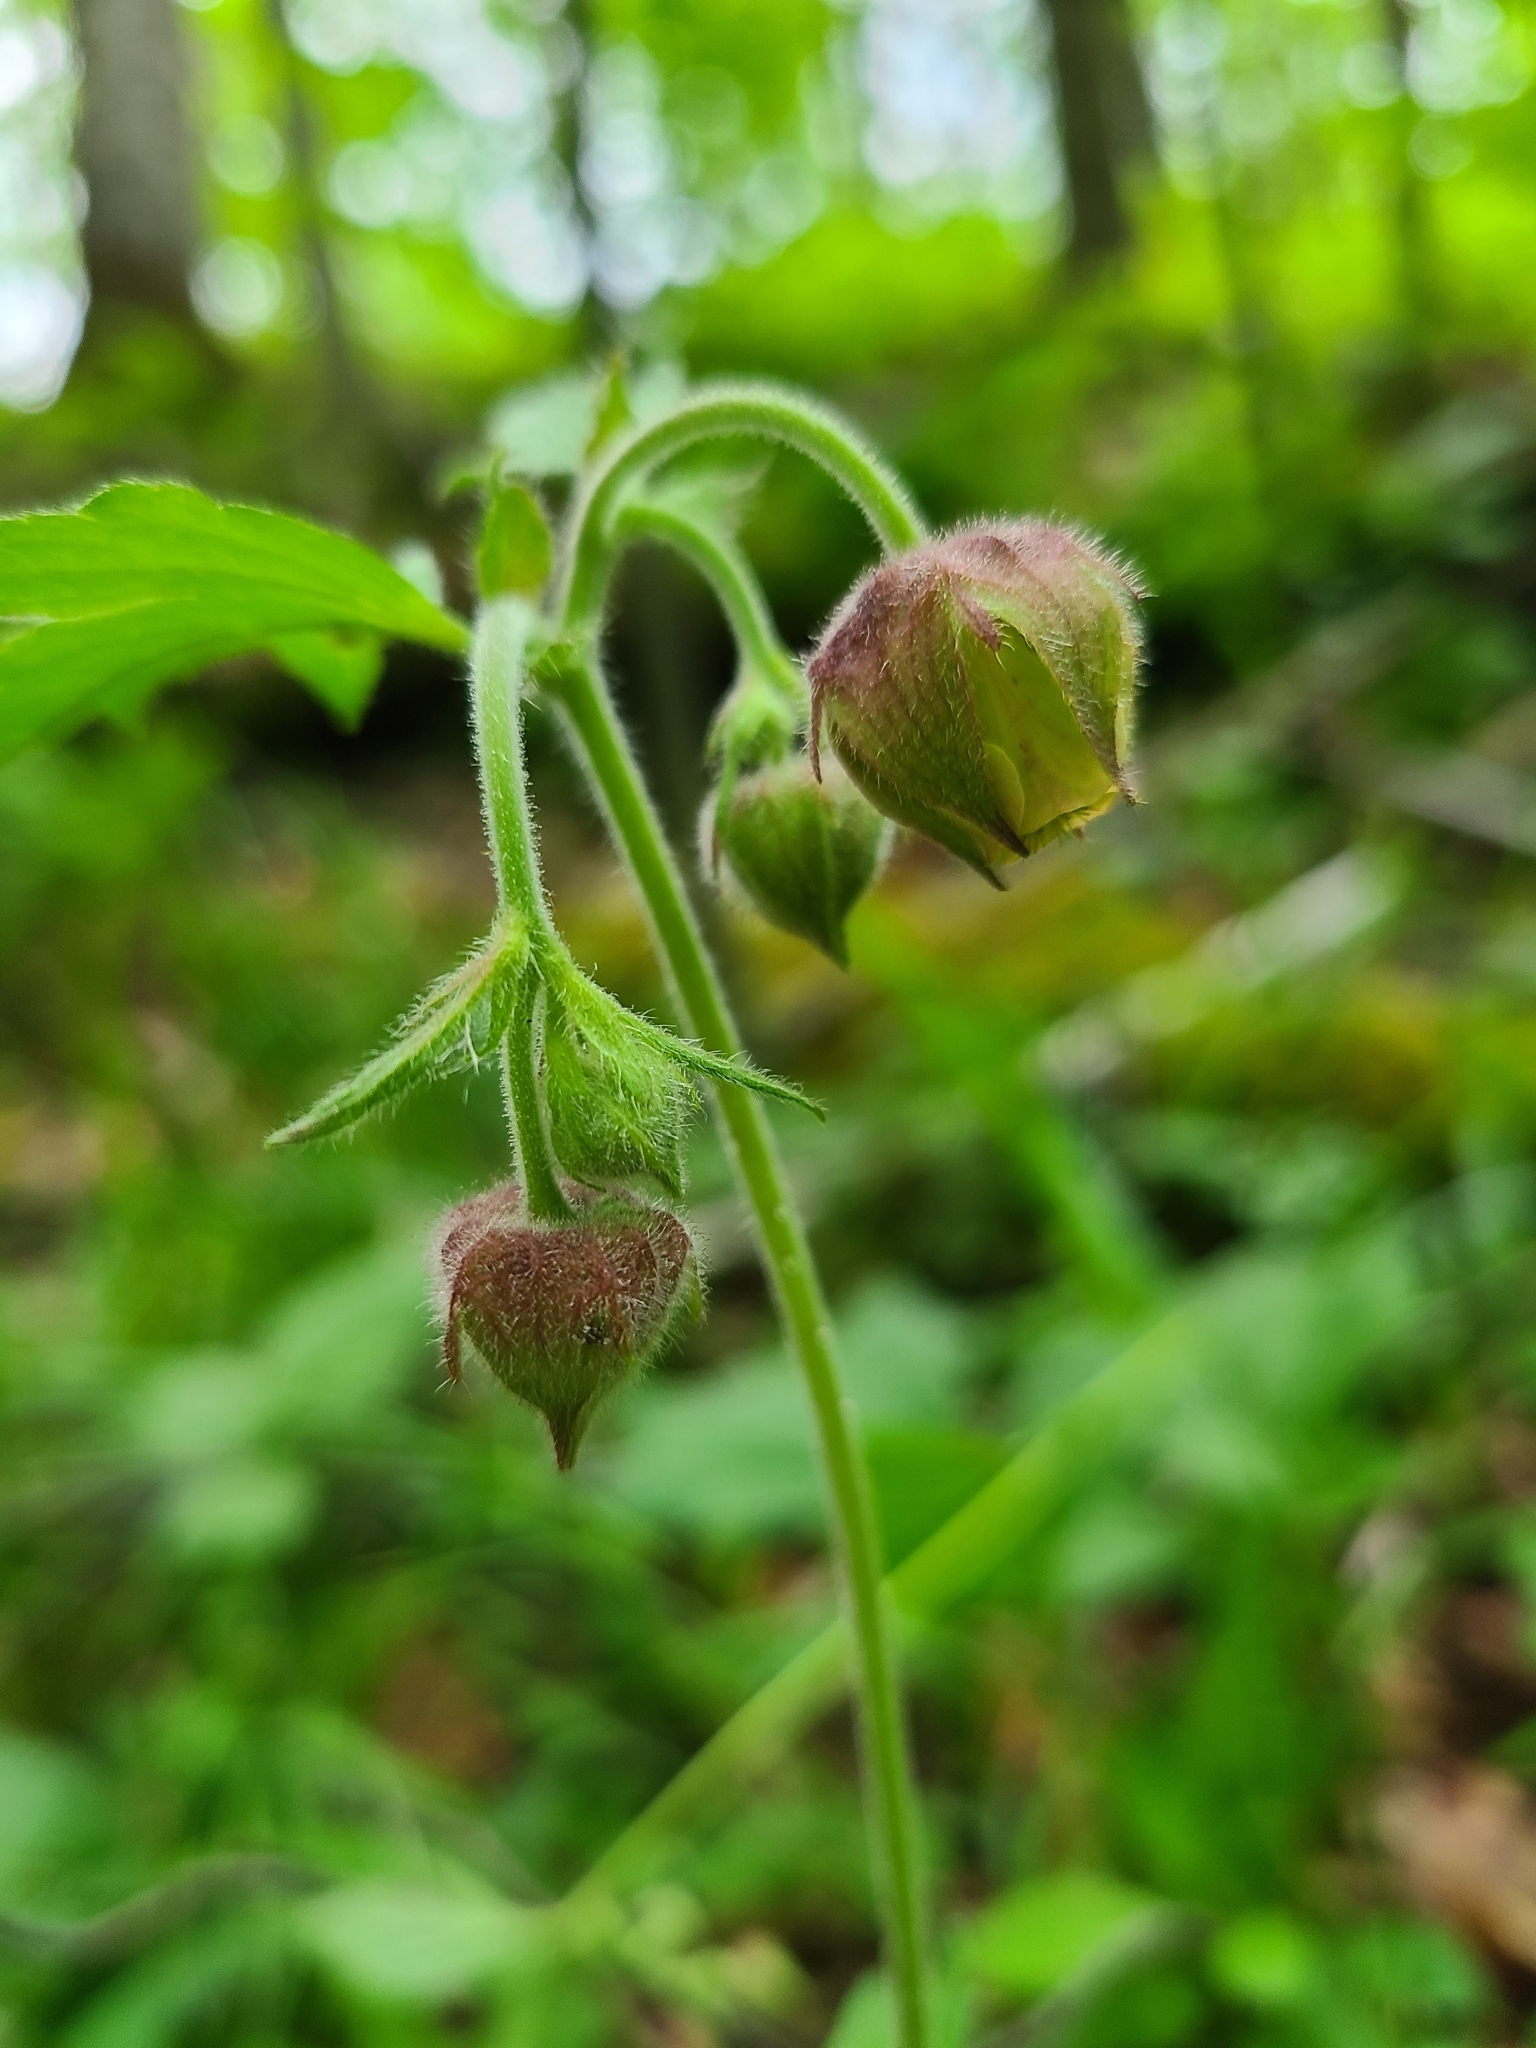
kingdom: Plantae
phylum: Tracheophyta
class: Magnoliopsida
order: Rosales
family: Rosaceae
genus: Geum
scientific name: Geum rivale
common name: Water avens
